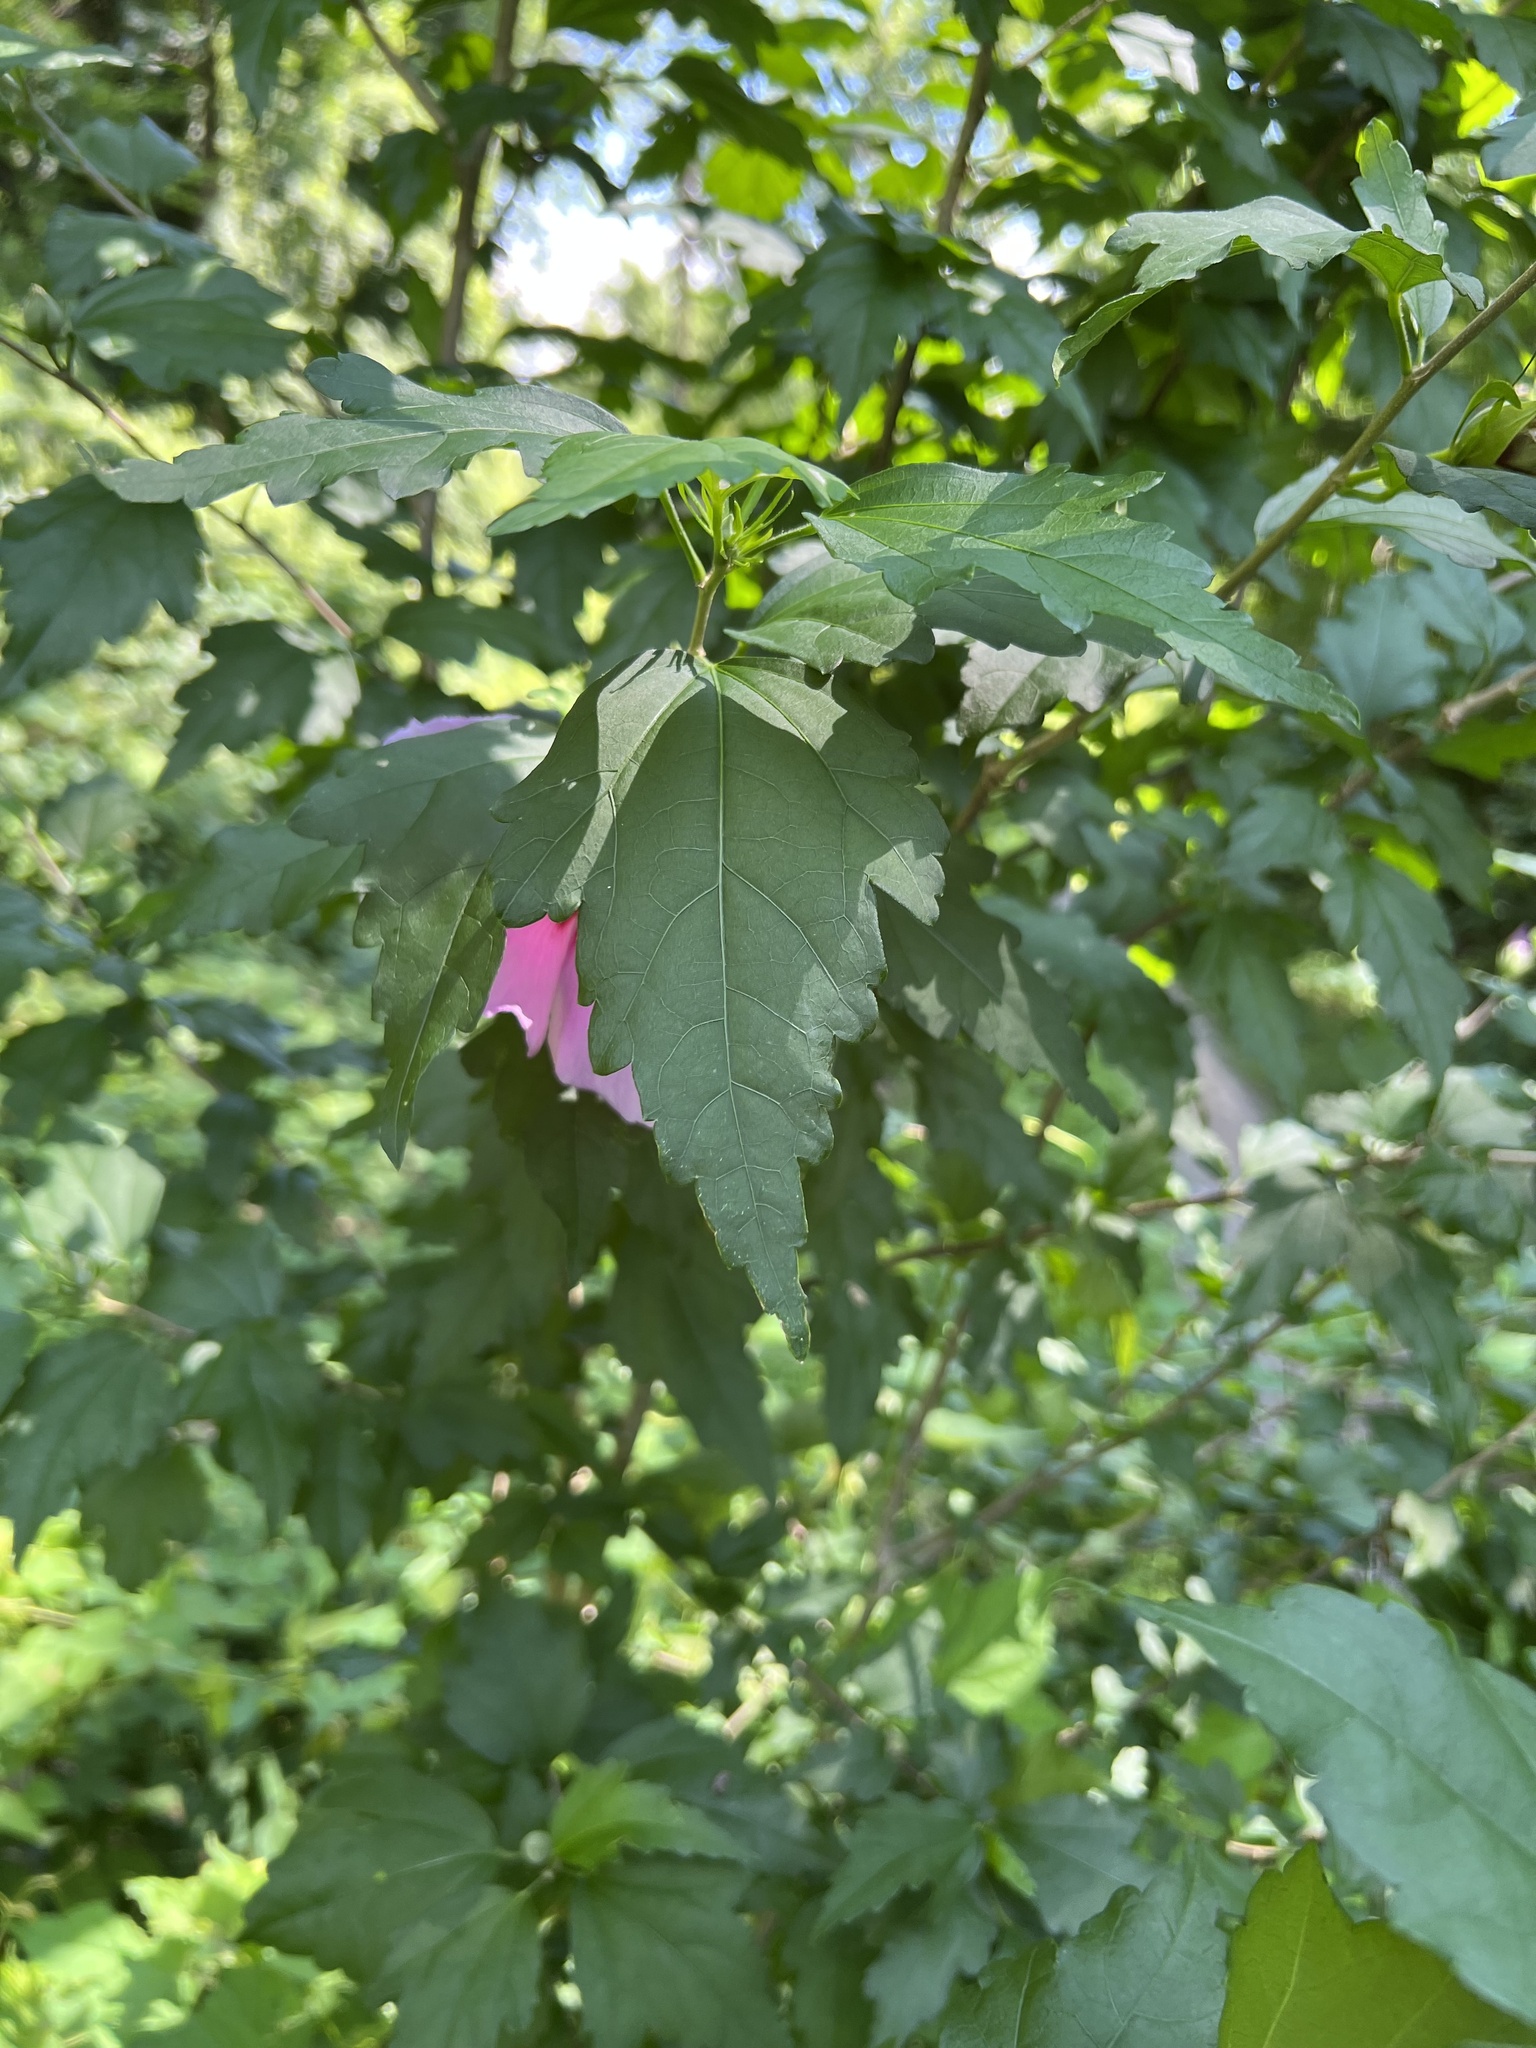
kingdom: Plantae
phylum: Tracheophyta
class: Magnoliopsida
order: Malvales
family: Malvaceae
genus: Hibiscus
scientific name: Hibiscus syriacus
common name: Syrian ketmia
